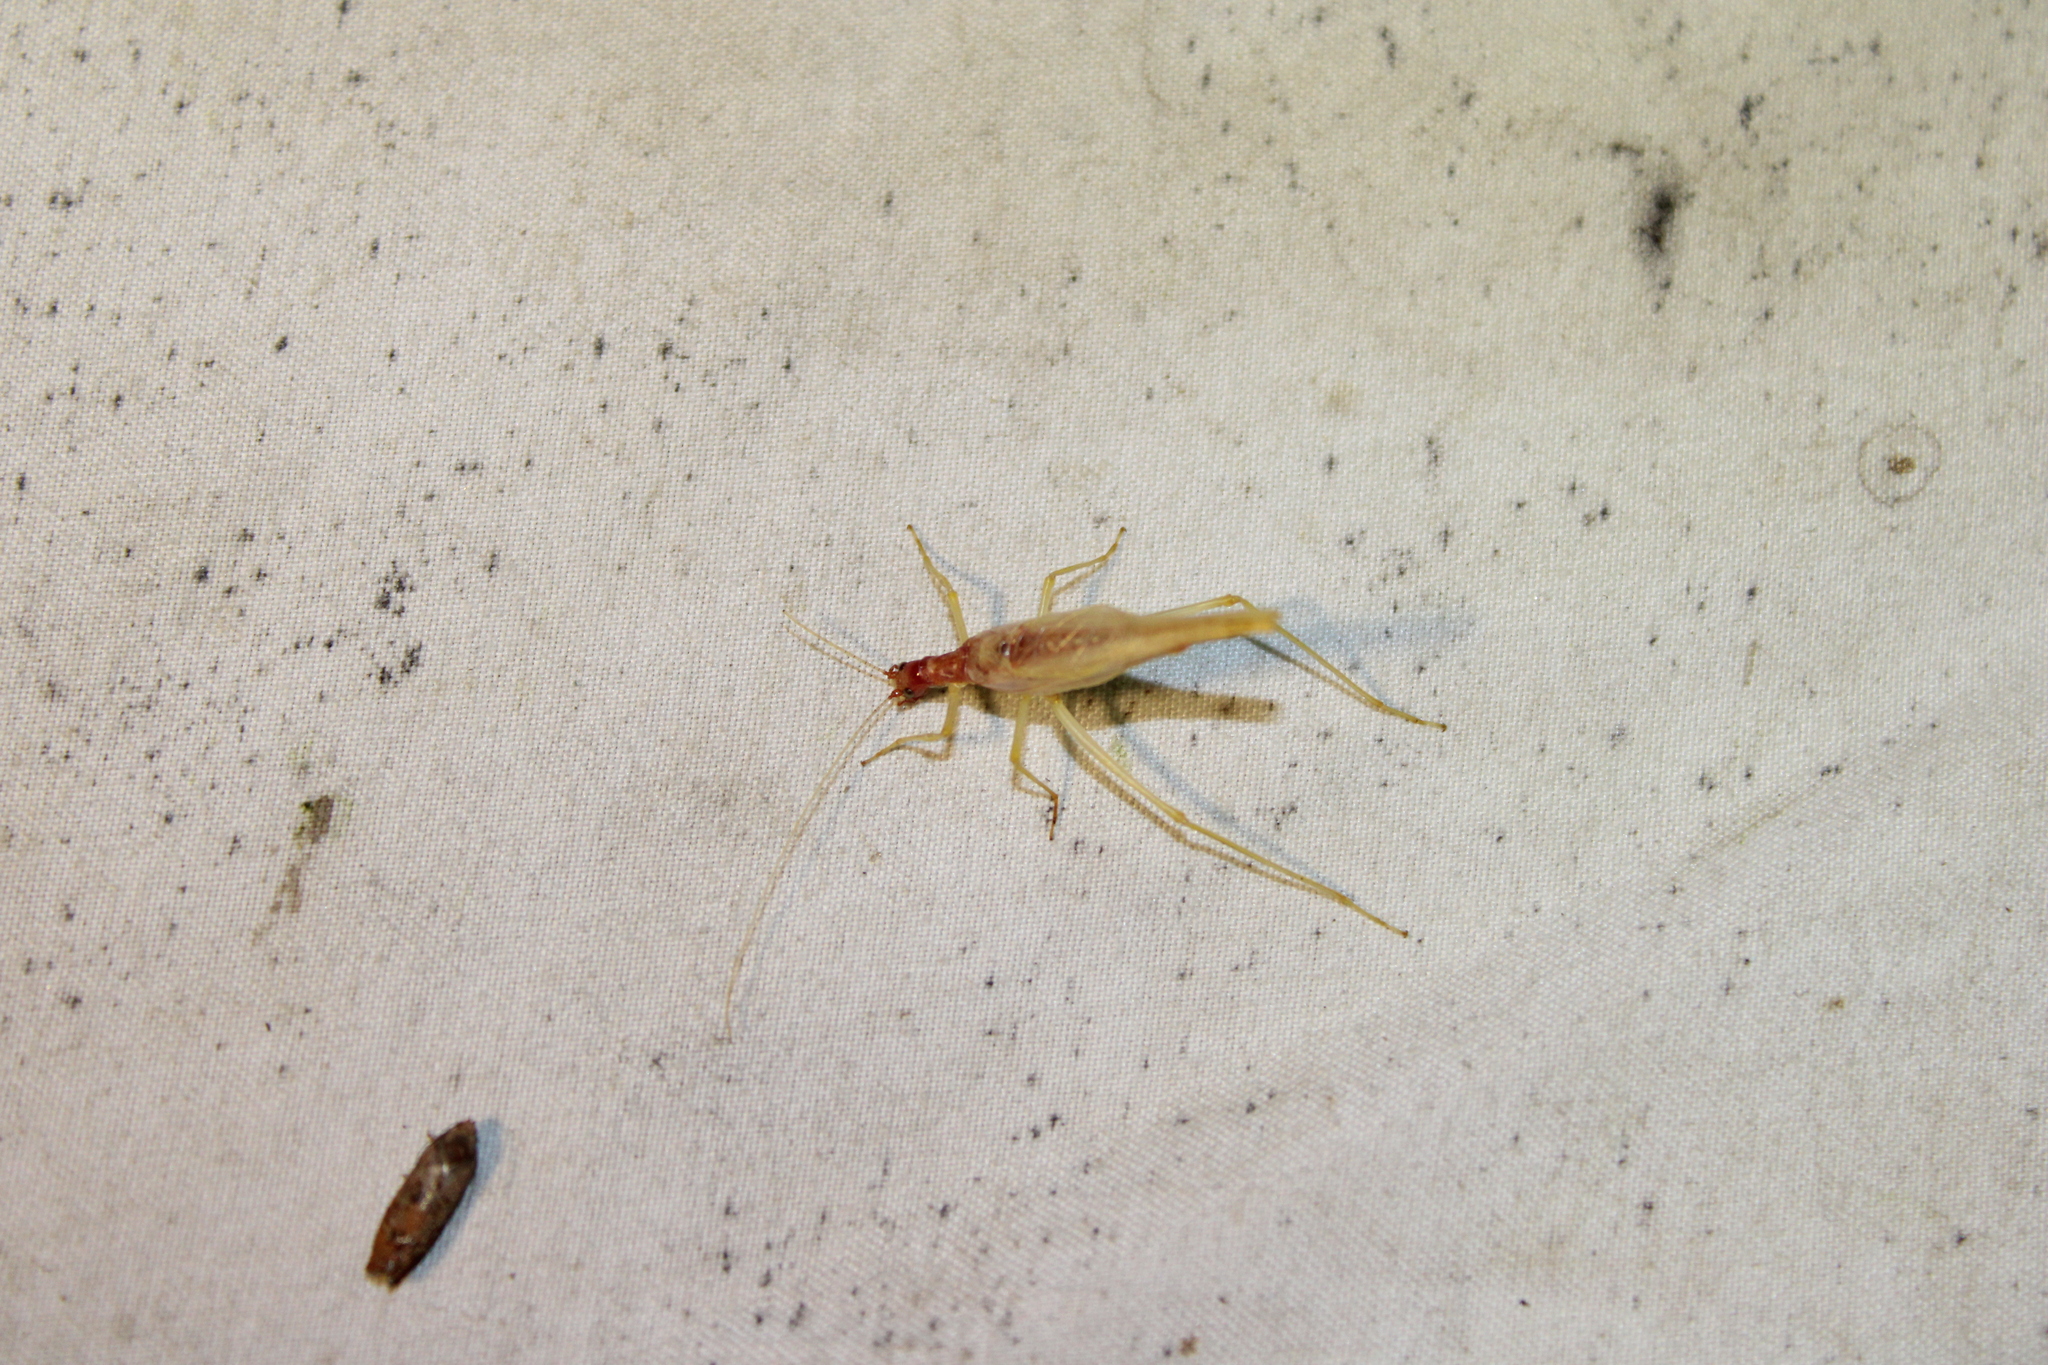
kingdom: Animalia
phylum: Arthropoda
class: Insecta
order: Orthoptera
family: Gryllidae
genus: Neoxabea
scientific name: Neoxabea bipunctata
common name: Two-spotted tree cricket
